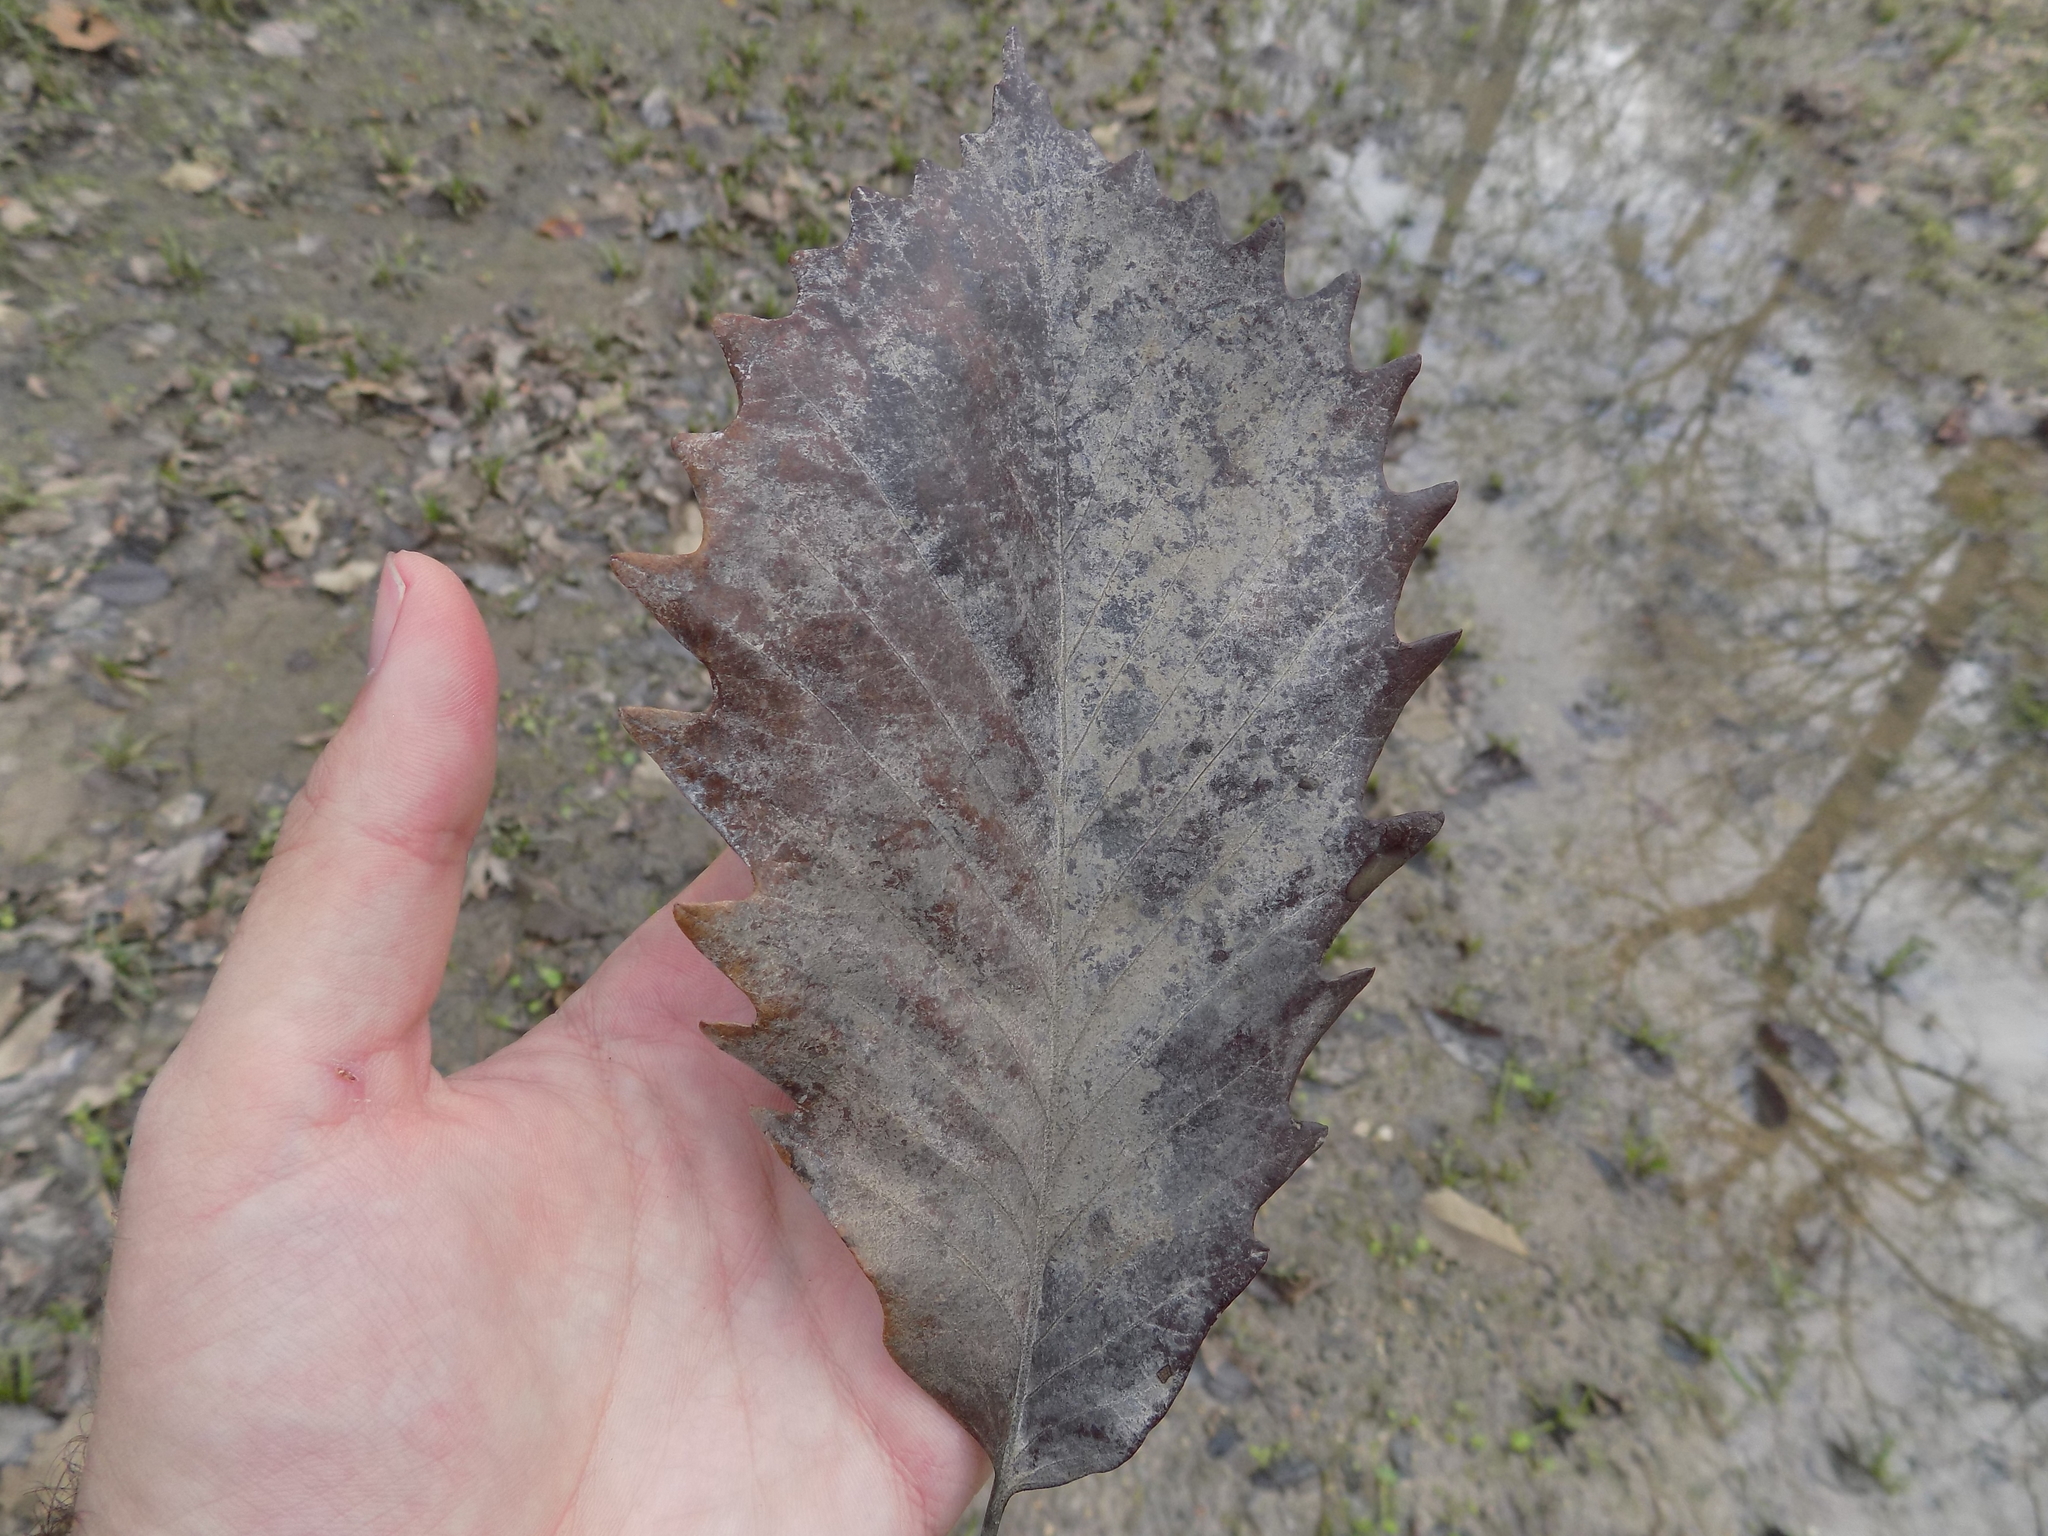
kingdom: Plantae
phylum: Tracheophyta
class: Magnoliopsida
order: Fagales
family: Fagaceae
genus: Quercus
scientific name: Quercus michauxii
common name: Swamp chestnut oak
